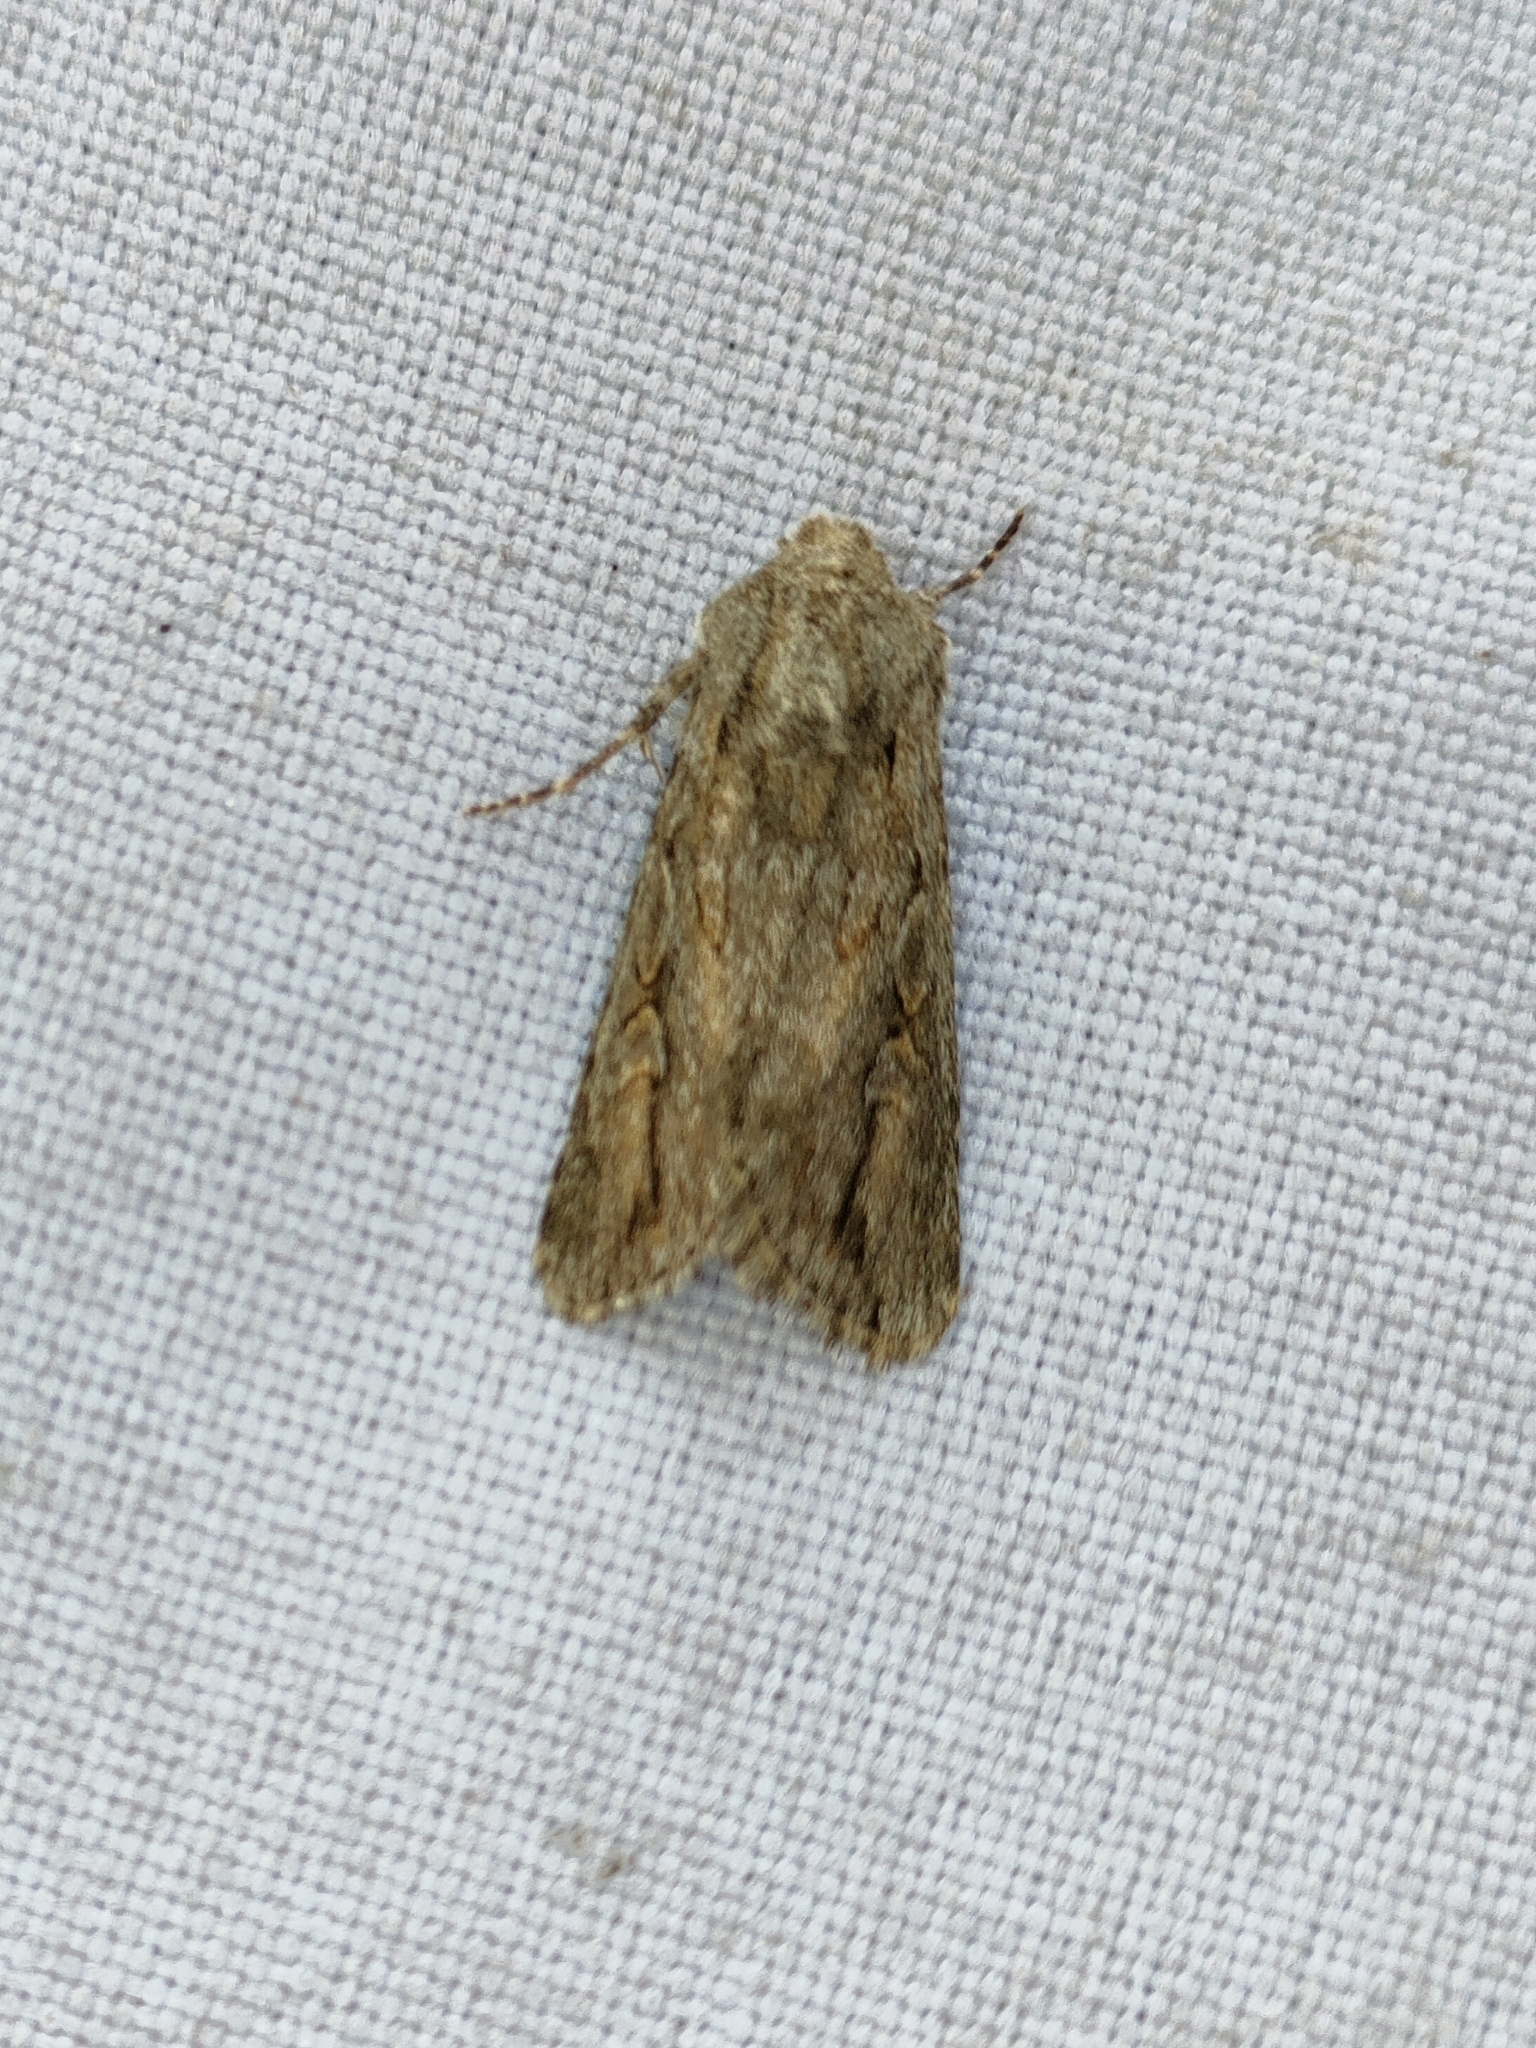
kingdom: Animalia
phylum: Arthropoda
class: Insecta
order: Lepidoptera
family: Noctuidae
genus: Dichagyris
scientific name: Dichagyris mansoura
